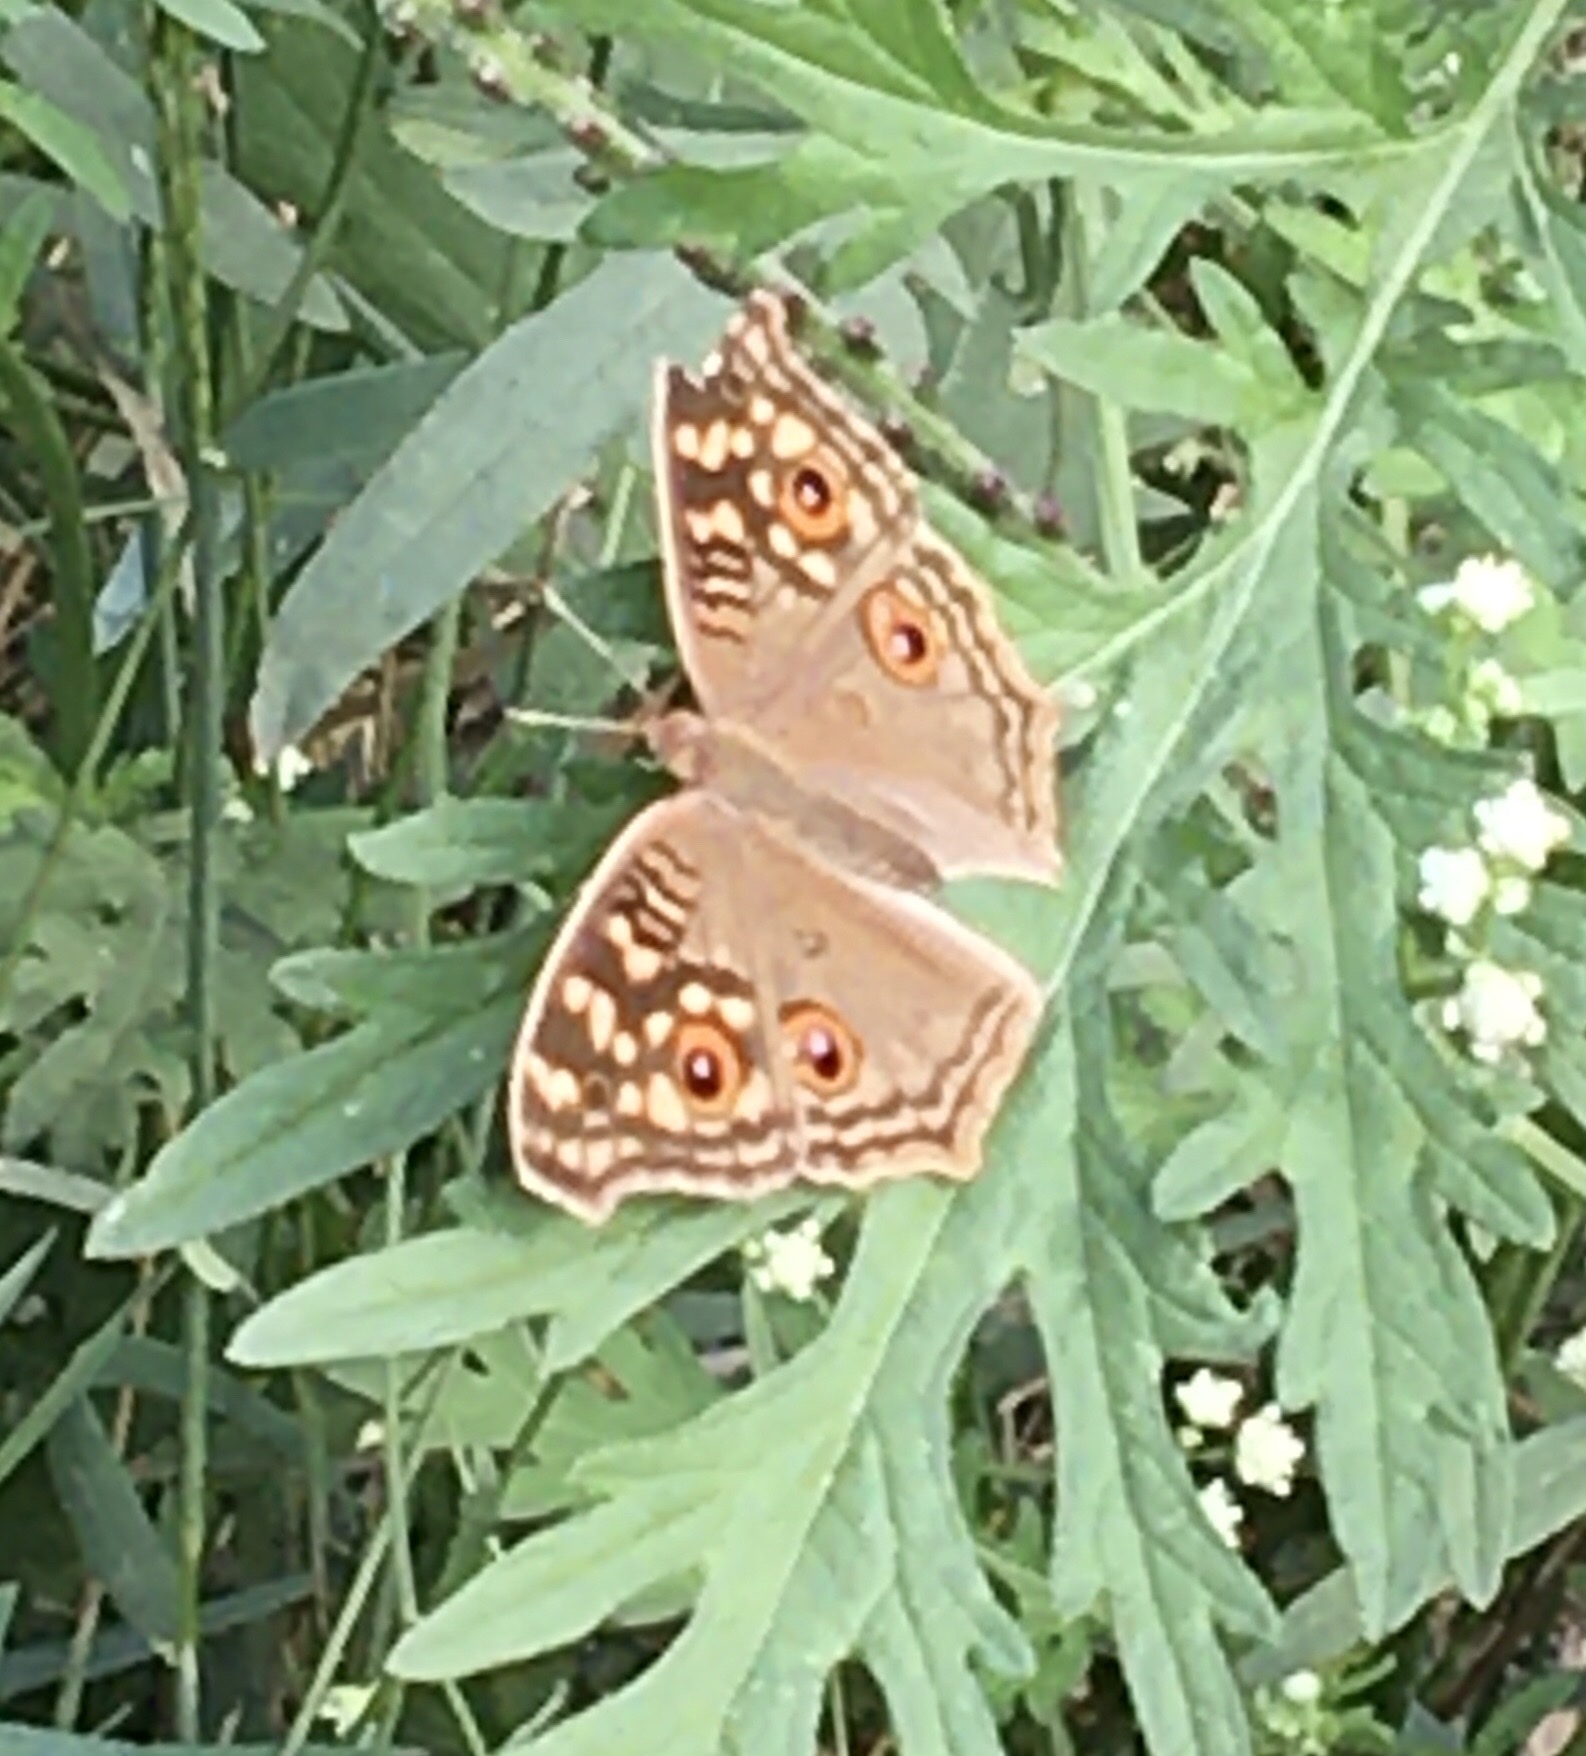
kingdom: Animalia
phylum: Arthropoda
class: Insecta
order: Lepidoptera
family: Nymphalidae
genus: Junonia
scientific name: Junonia lemonias
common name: Lemon pansy
